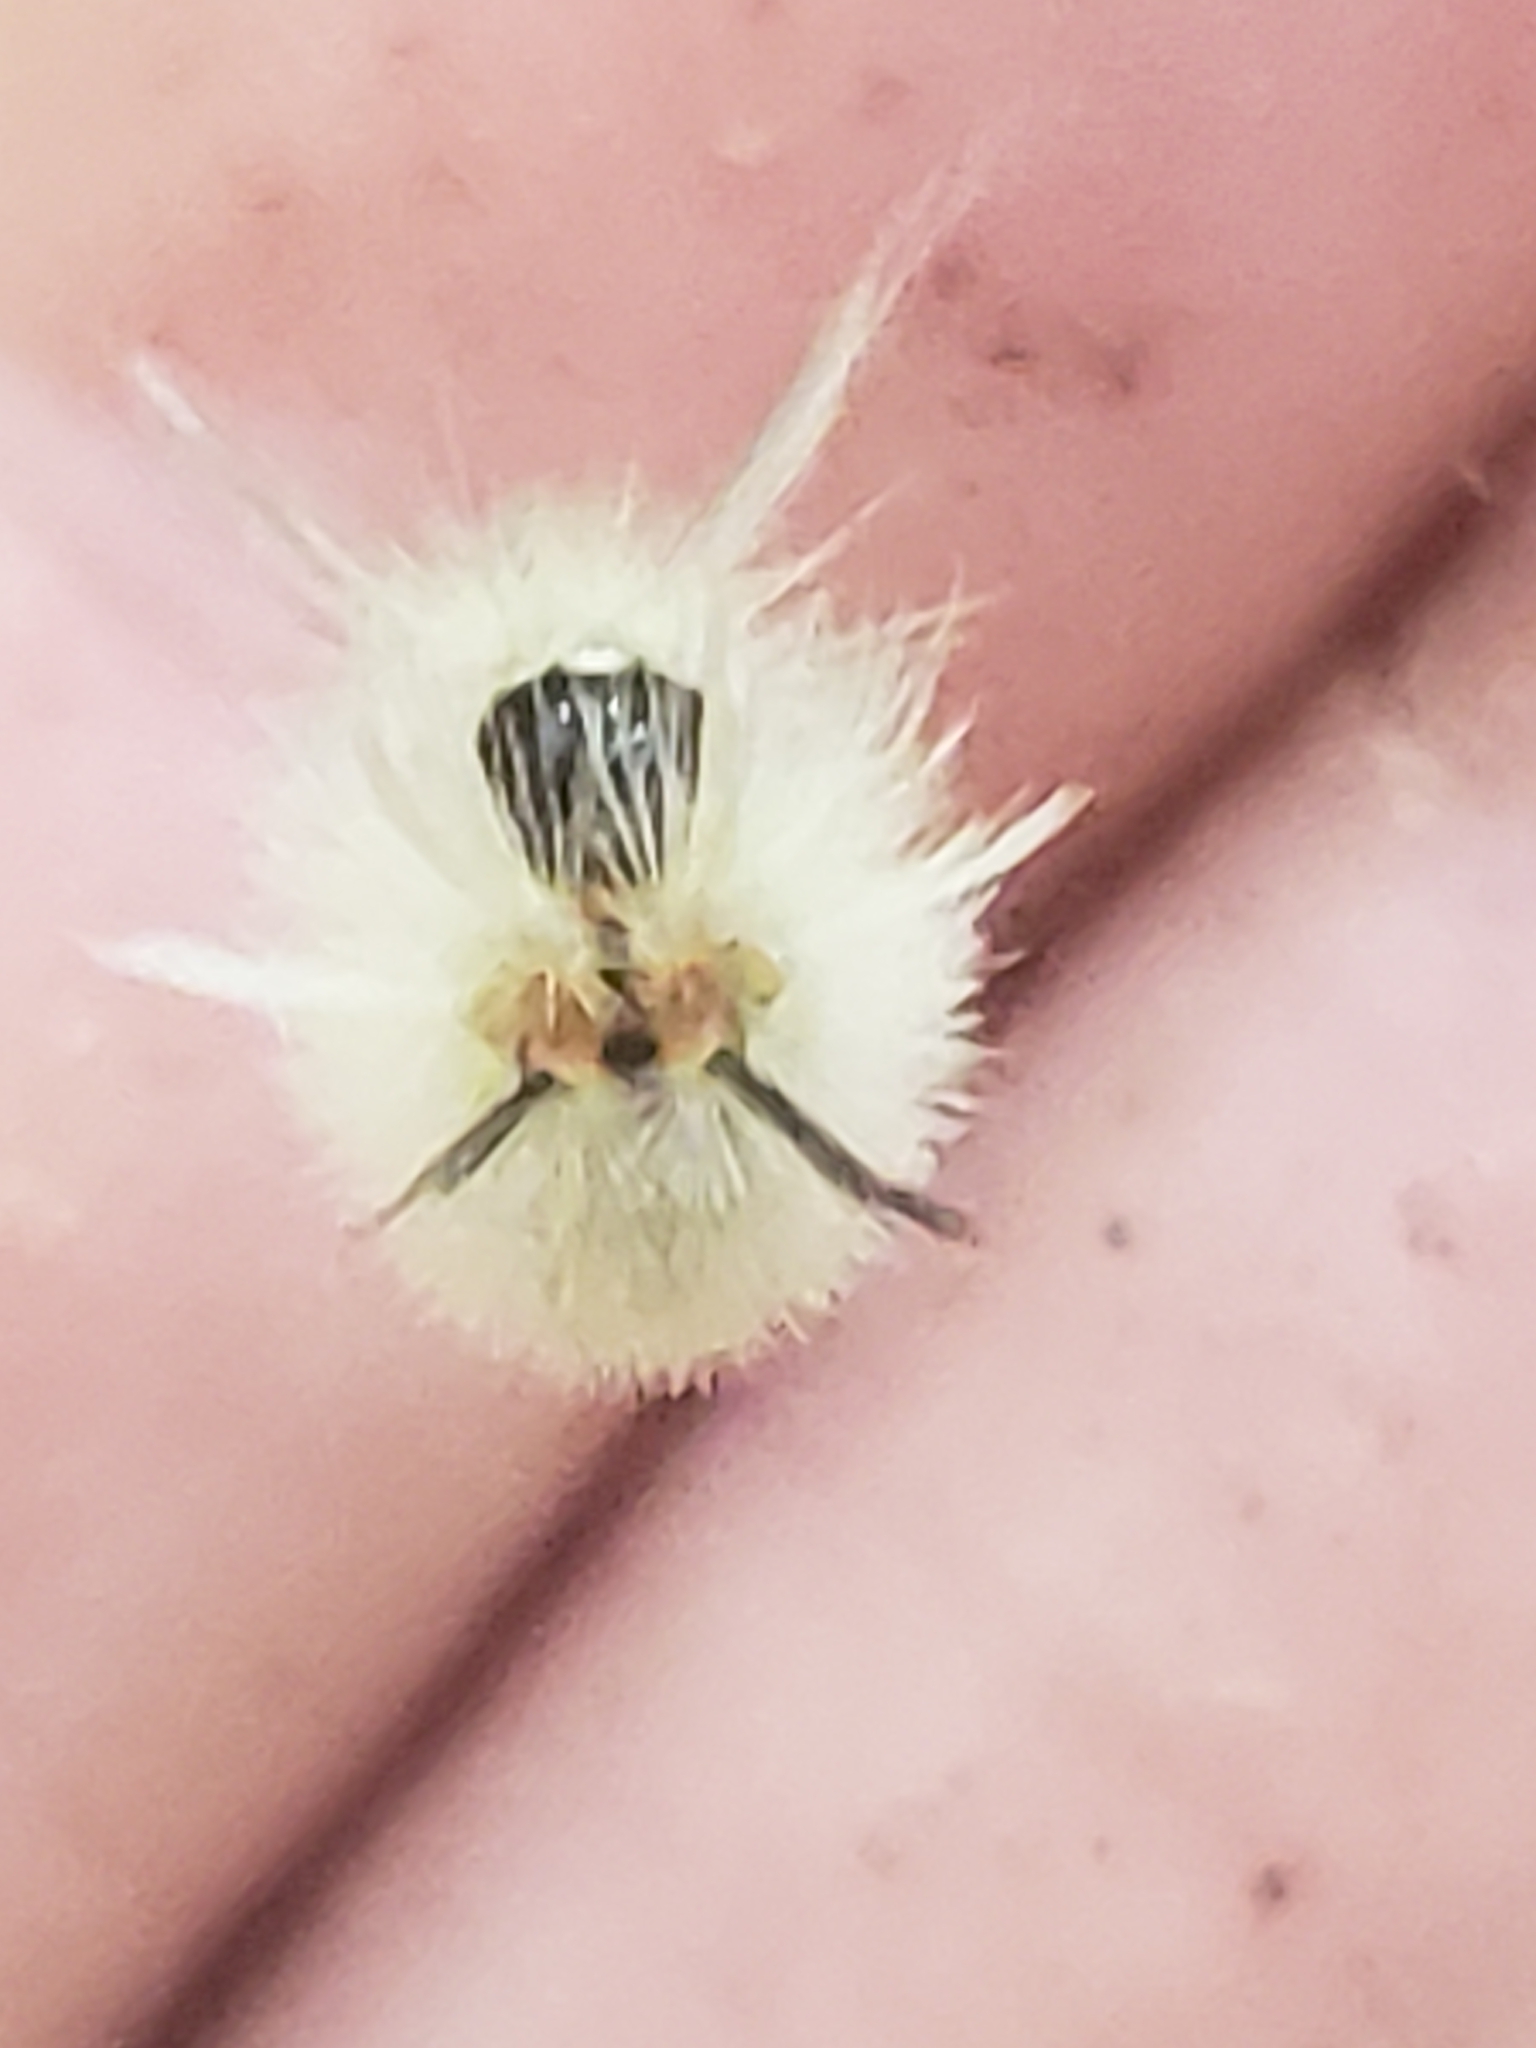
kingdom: Animalia
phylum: Arthropoda
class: Insecta
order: Lepidoptera
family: Erebidae
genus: Halysidota
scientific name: Halysidota tessellaris
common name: Banded tussock moth
